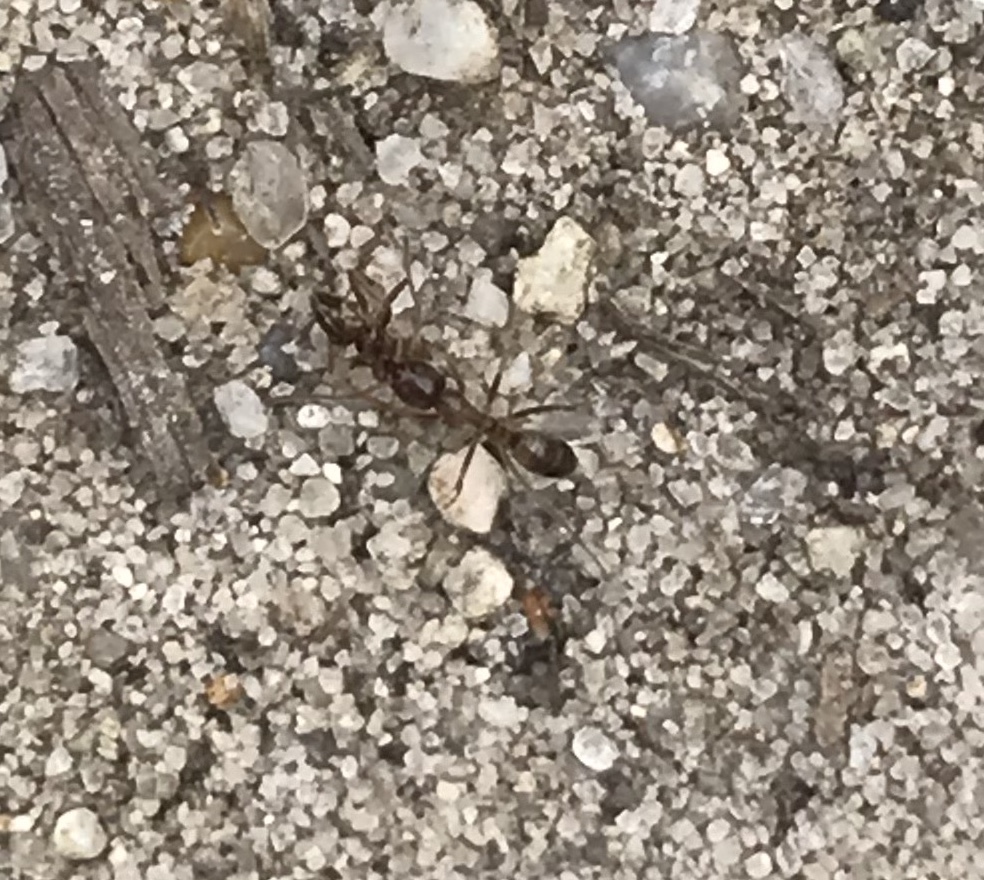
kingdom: Animalia
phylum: Arthropoda
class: Insecta
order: Hymenoptera
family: Formicidae
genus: Linepithema
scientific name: Linepithema humile
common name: Argentine ant
